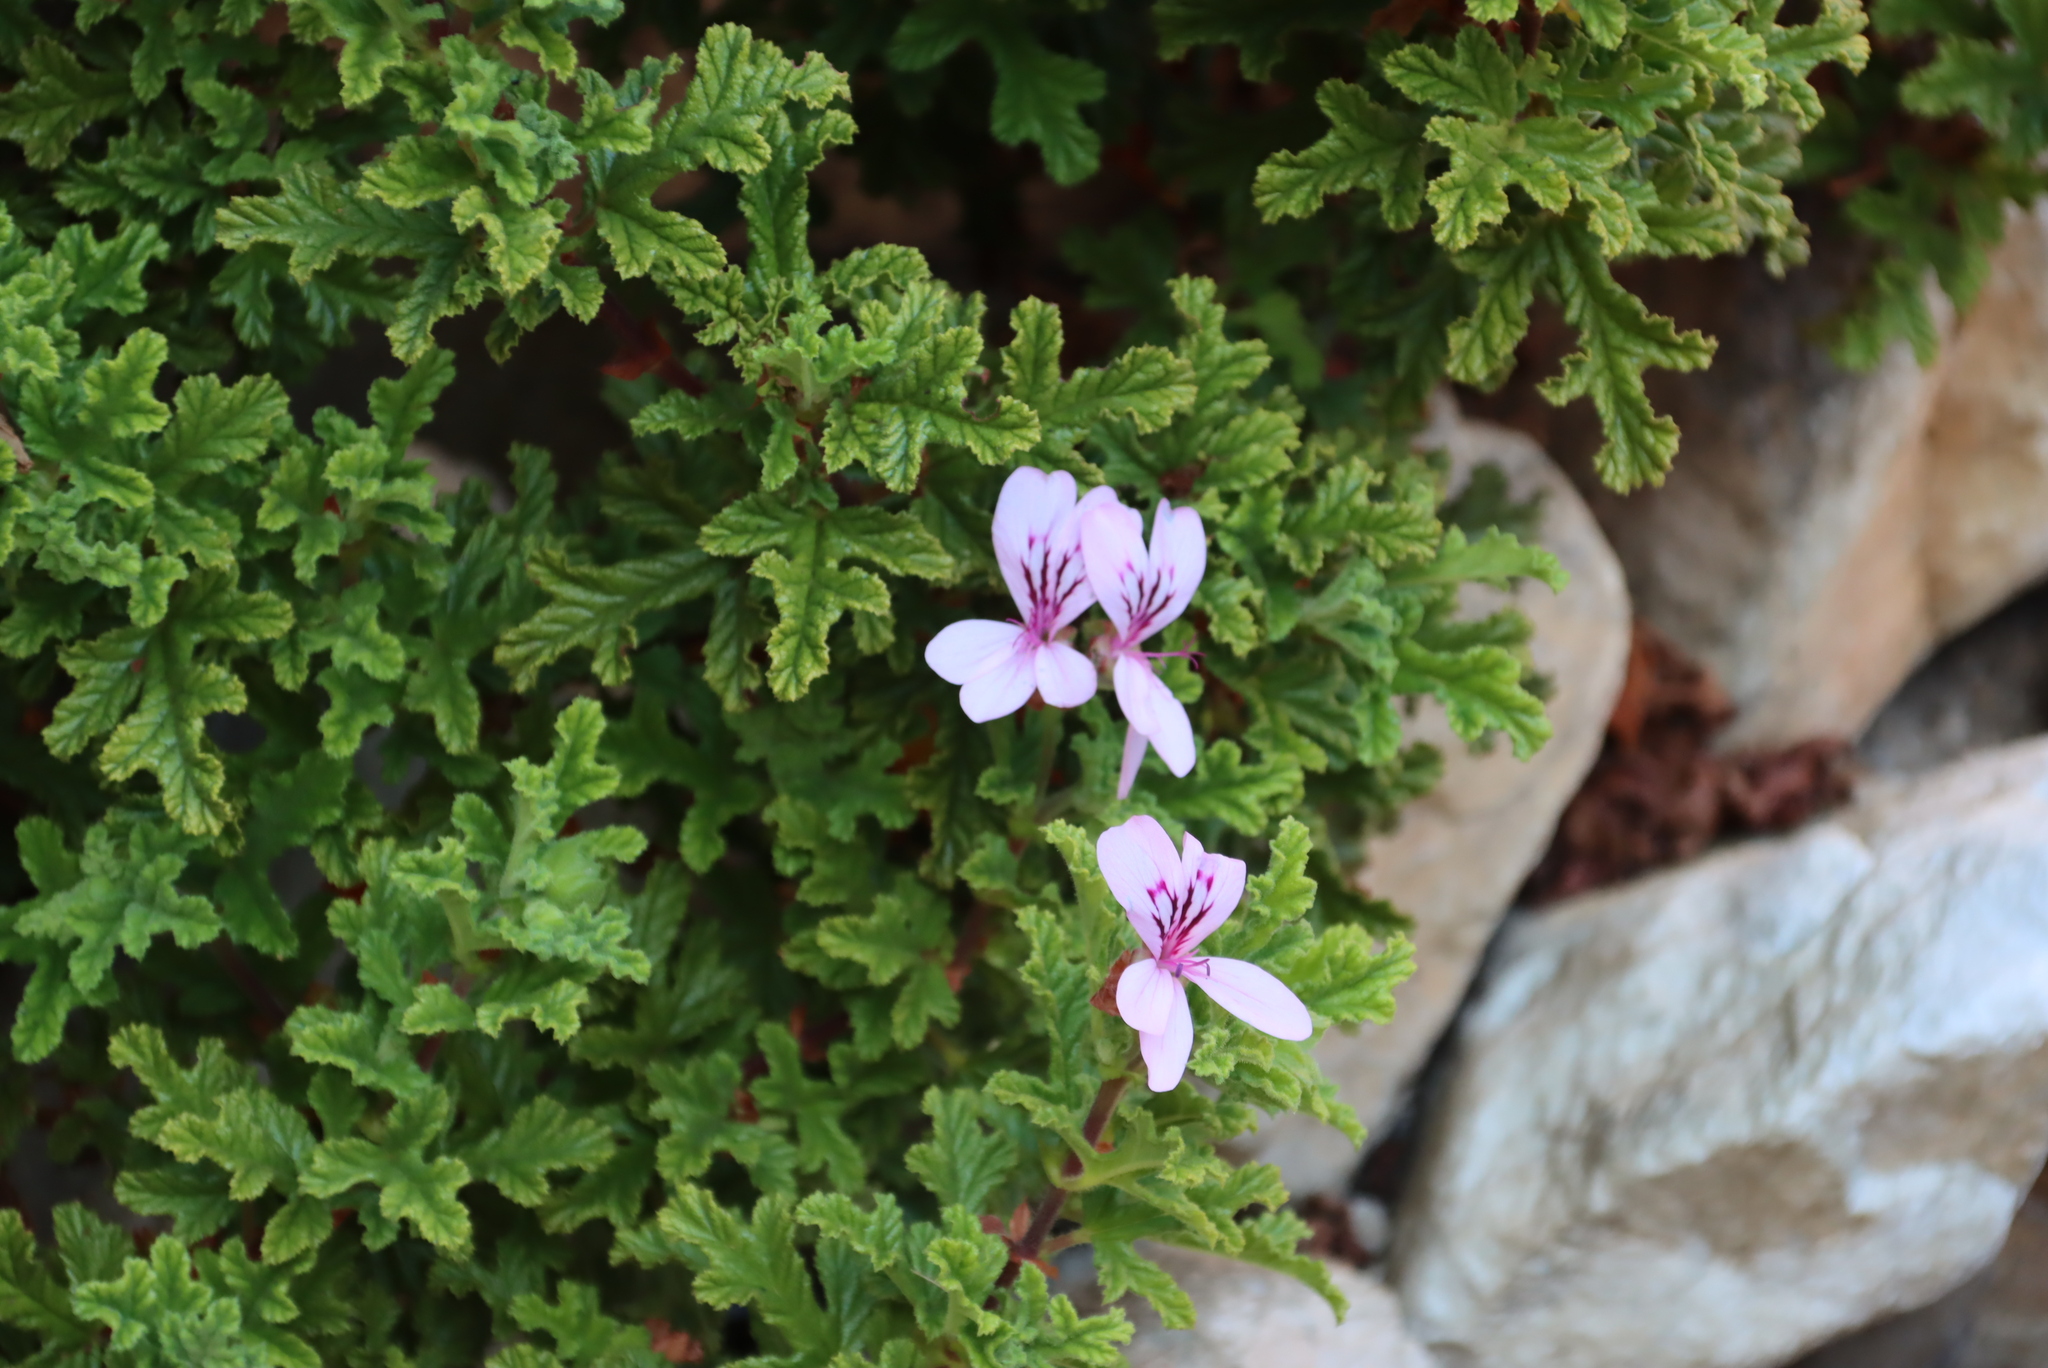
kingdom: Plantae
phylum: Tracheophyta
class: Magnoliopsida
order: Geraniales
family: Geraniaceae
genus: Pelargonium
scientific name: Pelargonium panduriforme
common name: Oakleaf garden geranium
